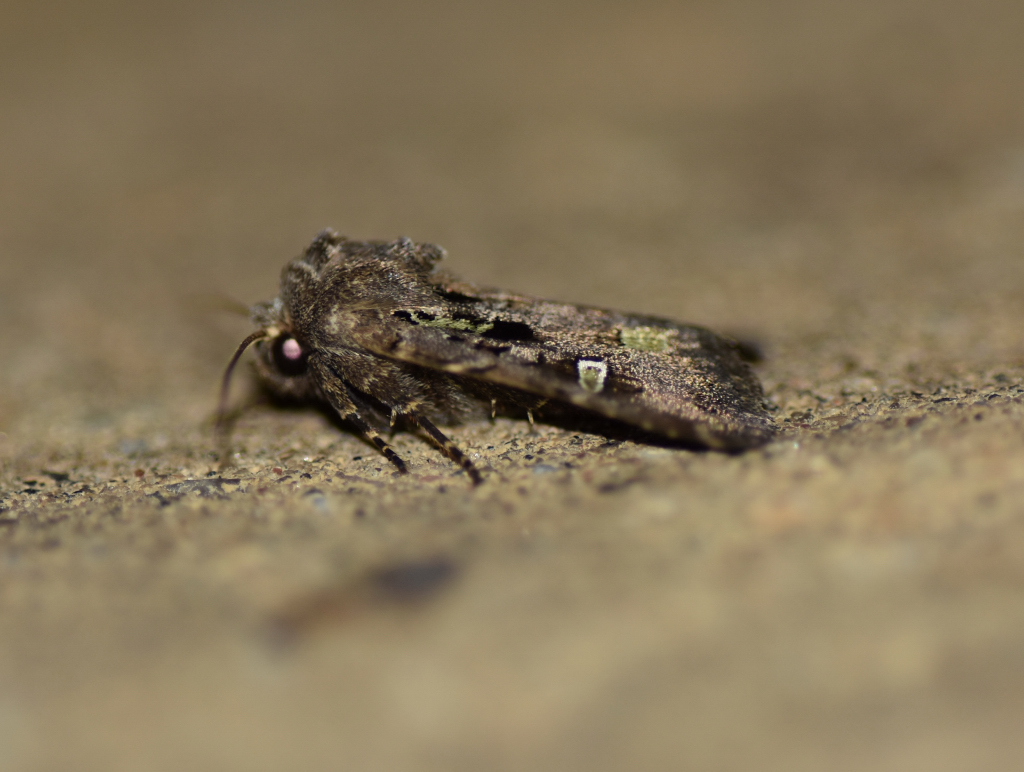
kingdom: Animalia
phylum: Arthropoda
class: Insecta
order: Lepidoptera
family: Noctuidae
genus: Lacinipolia
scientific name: Lacinipolia renigera
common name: Kidney-spotted minor
